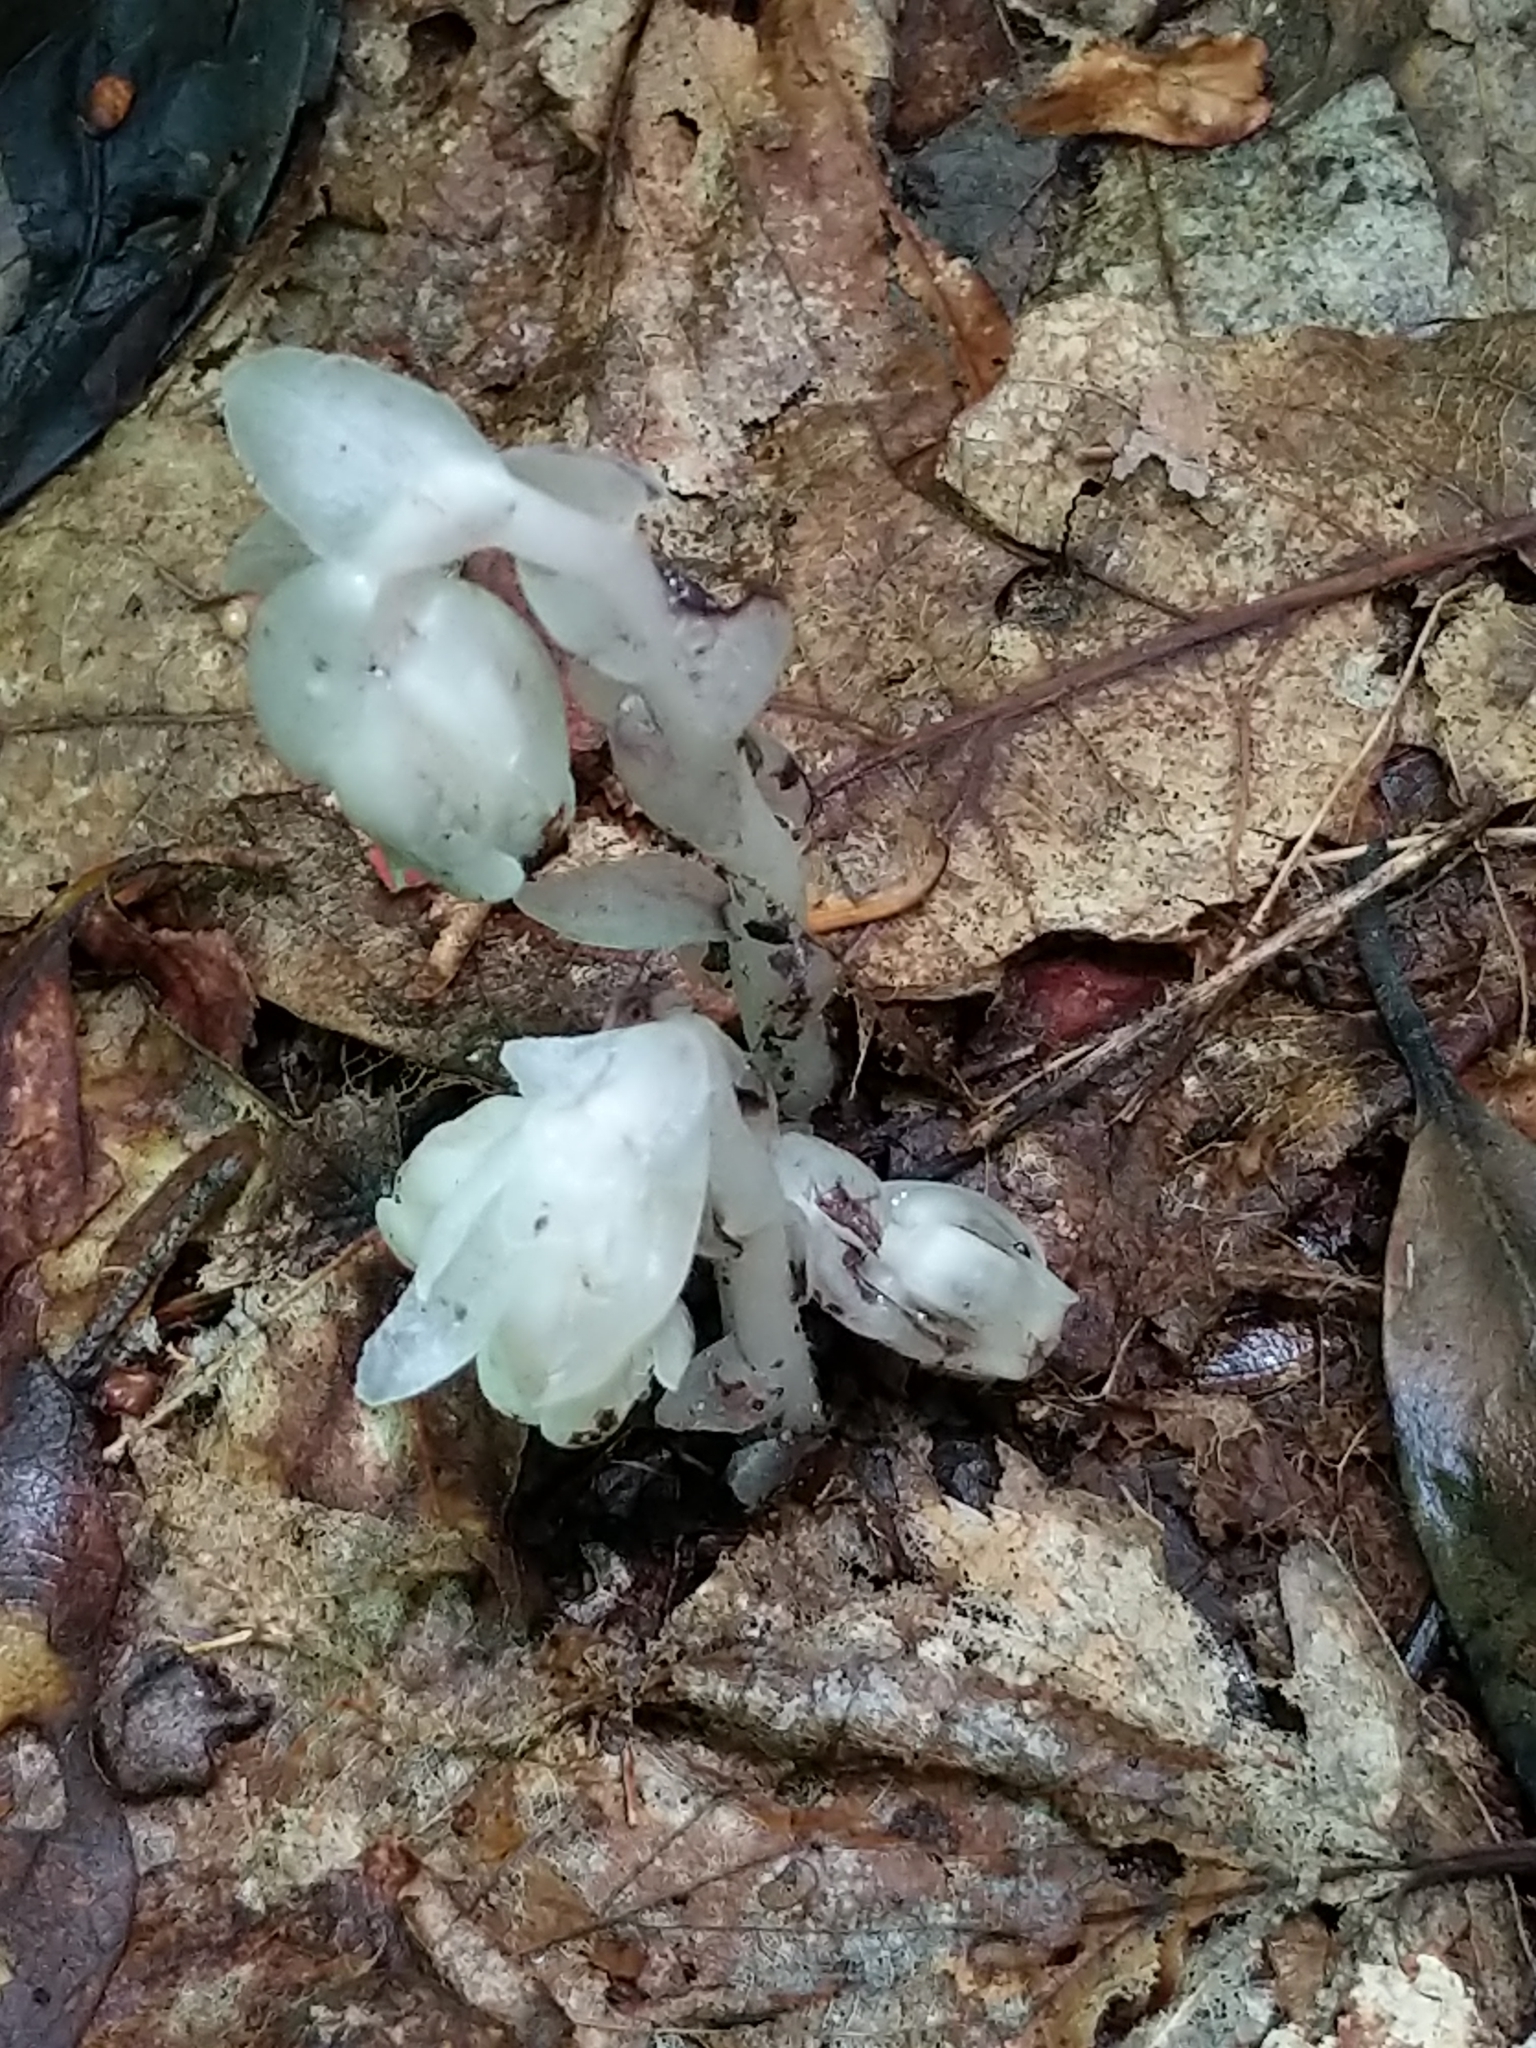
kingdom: Plantae
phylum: Tracheophyta
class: Magnoliopsida
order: Ericales
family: Ericaceae
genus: Monotropa
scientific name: Monotropa uniflora
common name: Convulsion root
